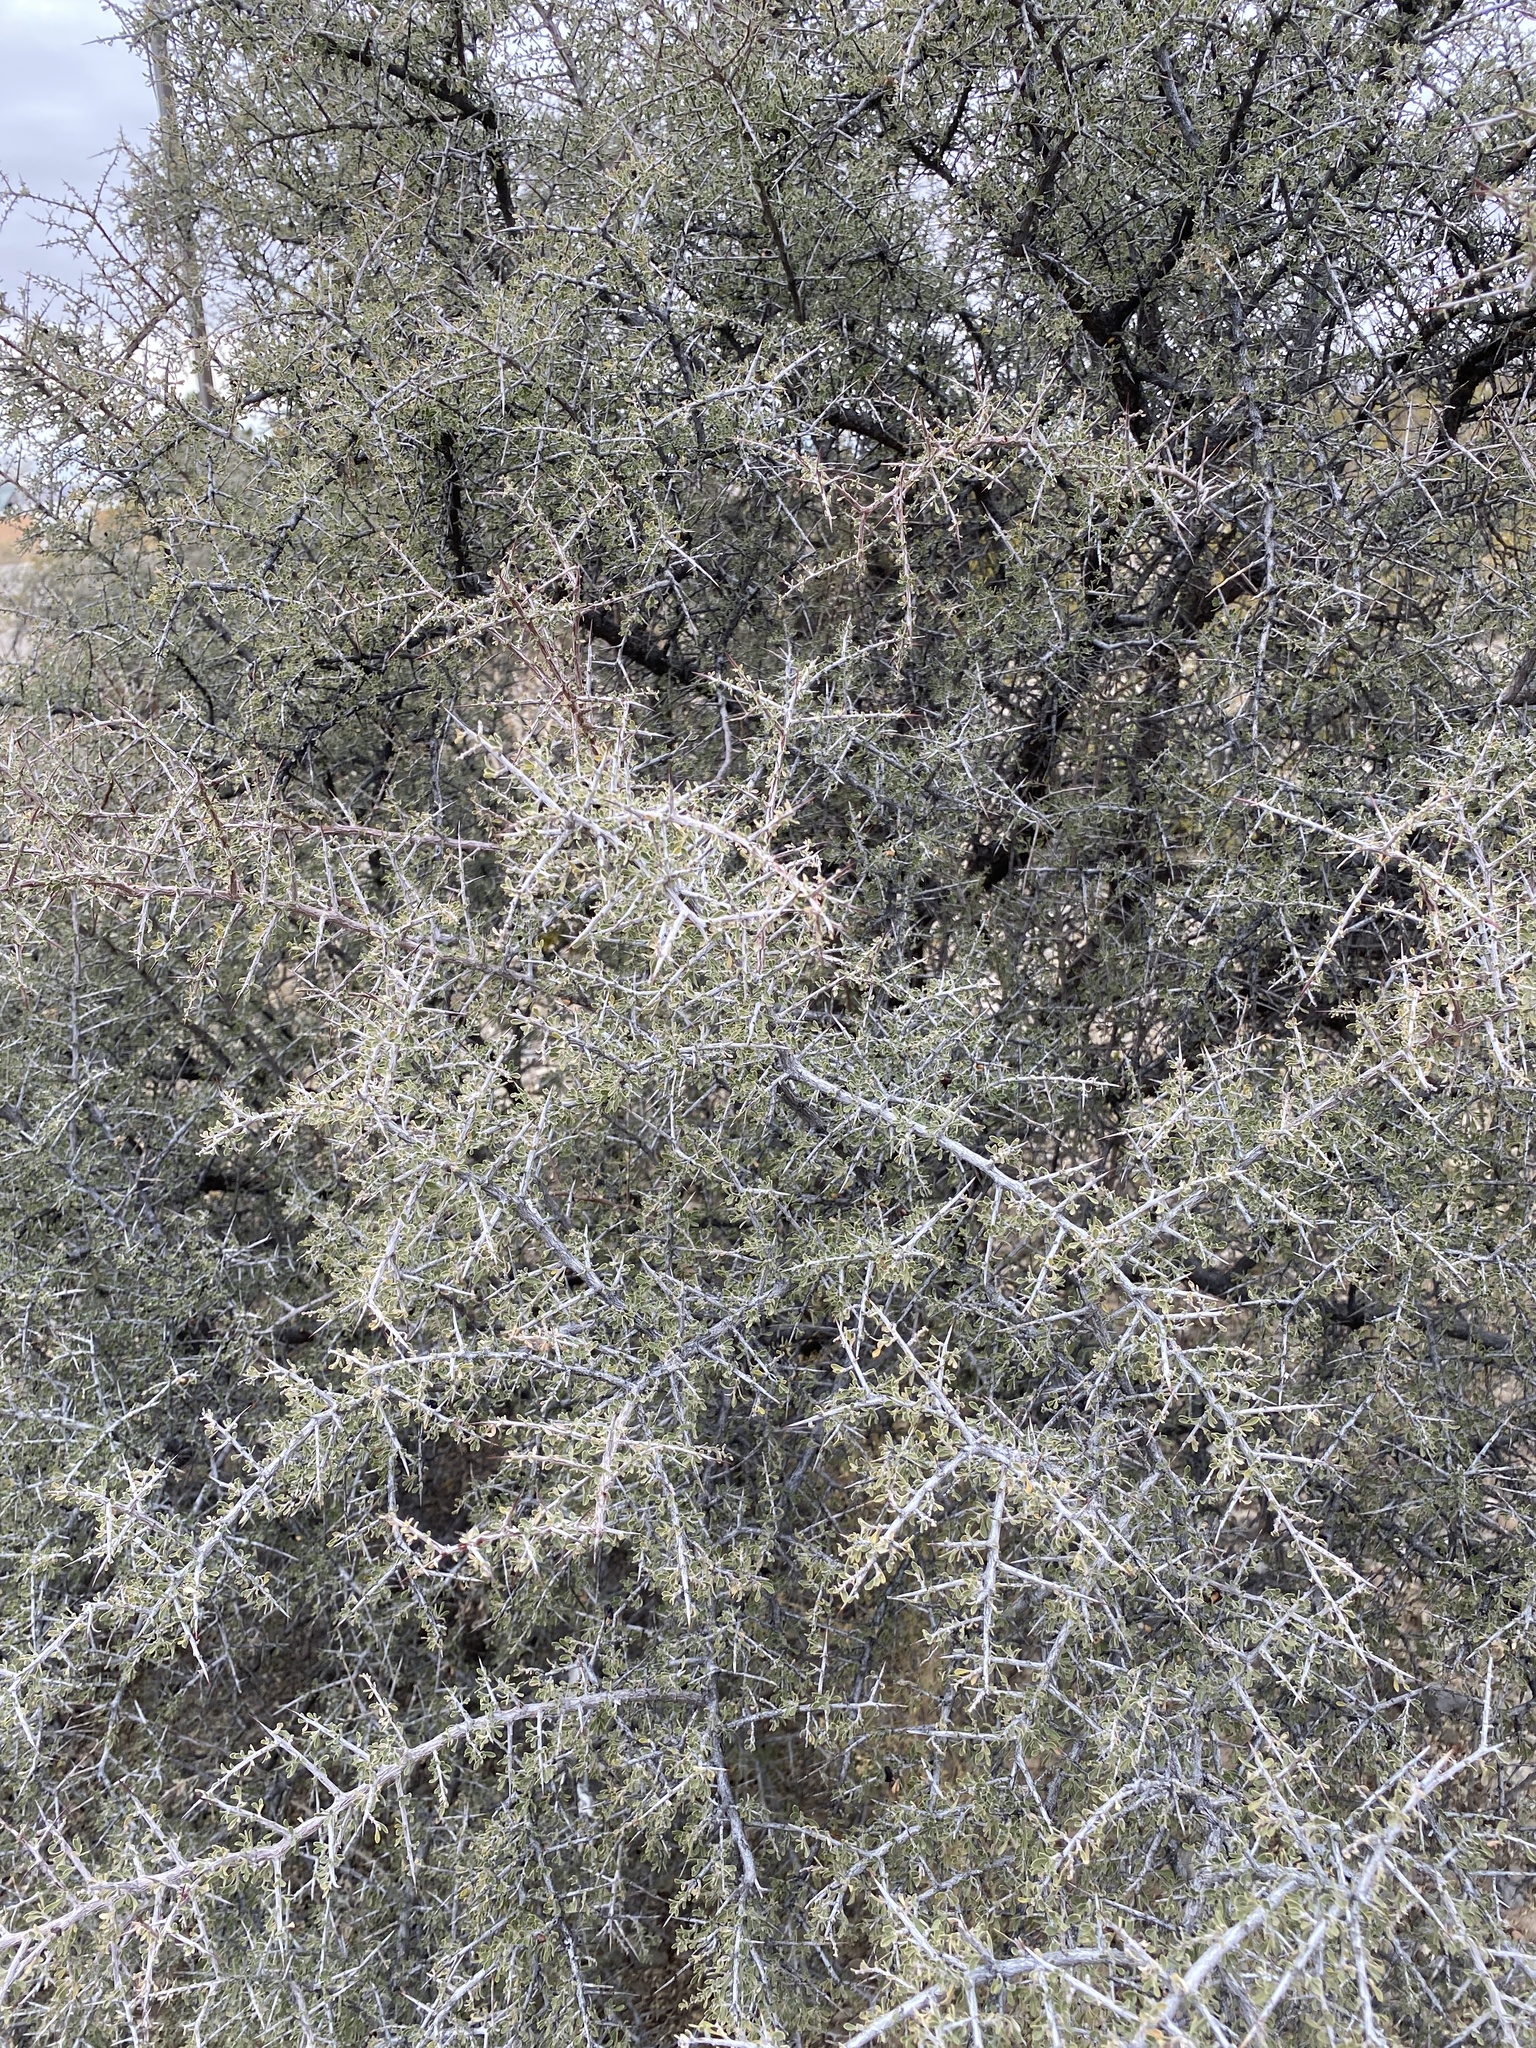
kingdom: Plantae
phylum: Tracheophyta
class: Magnoliopsida
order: Rosales
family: Rhamnaceae
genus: Condalia
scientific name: Condalia warnockii
